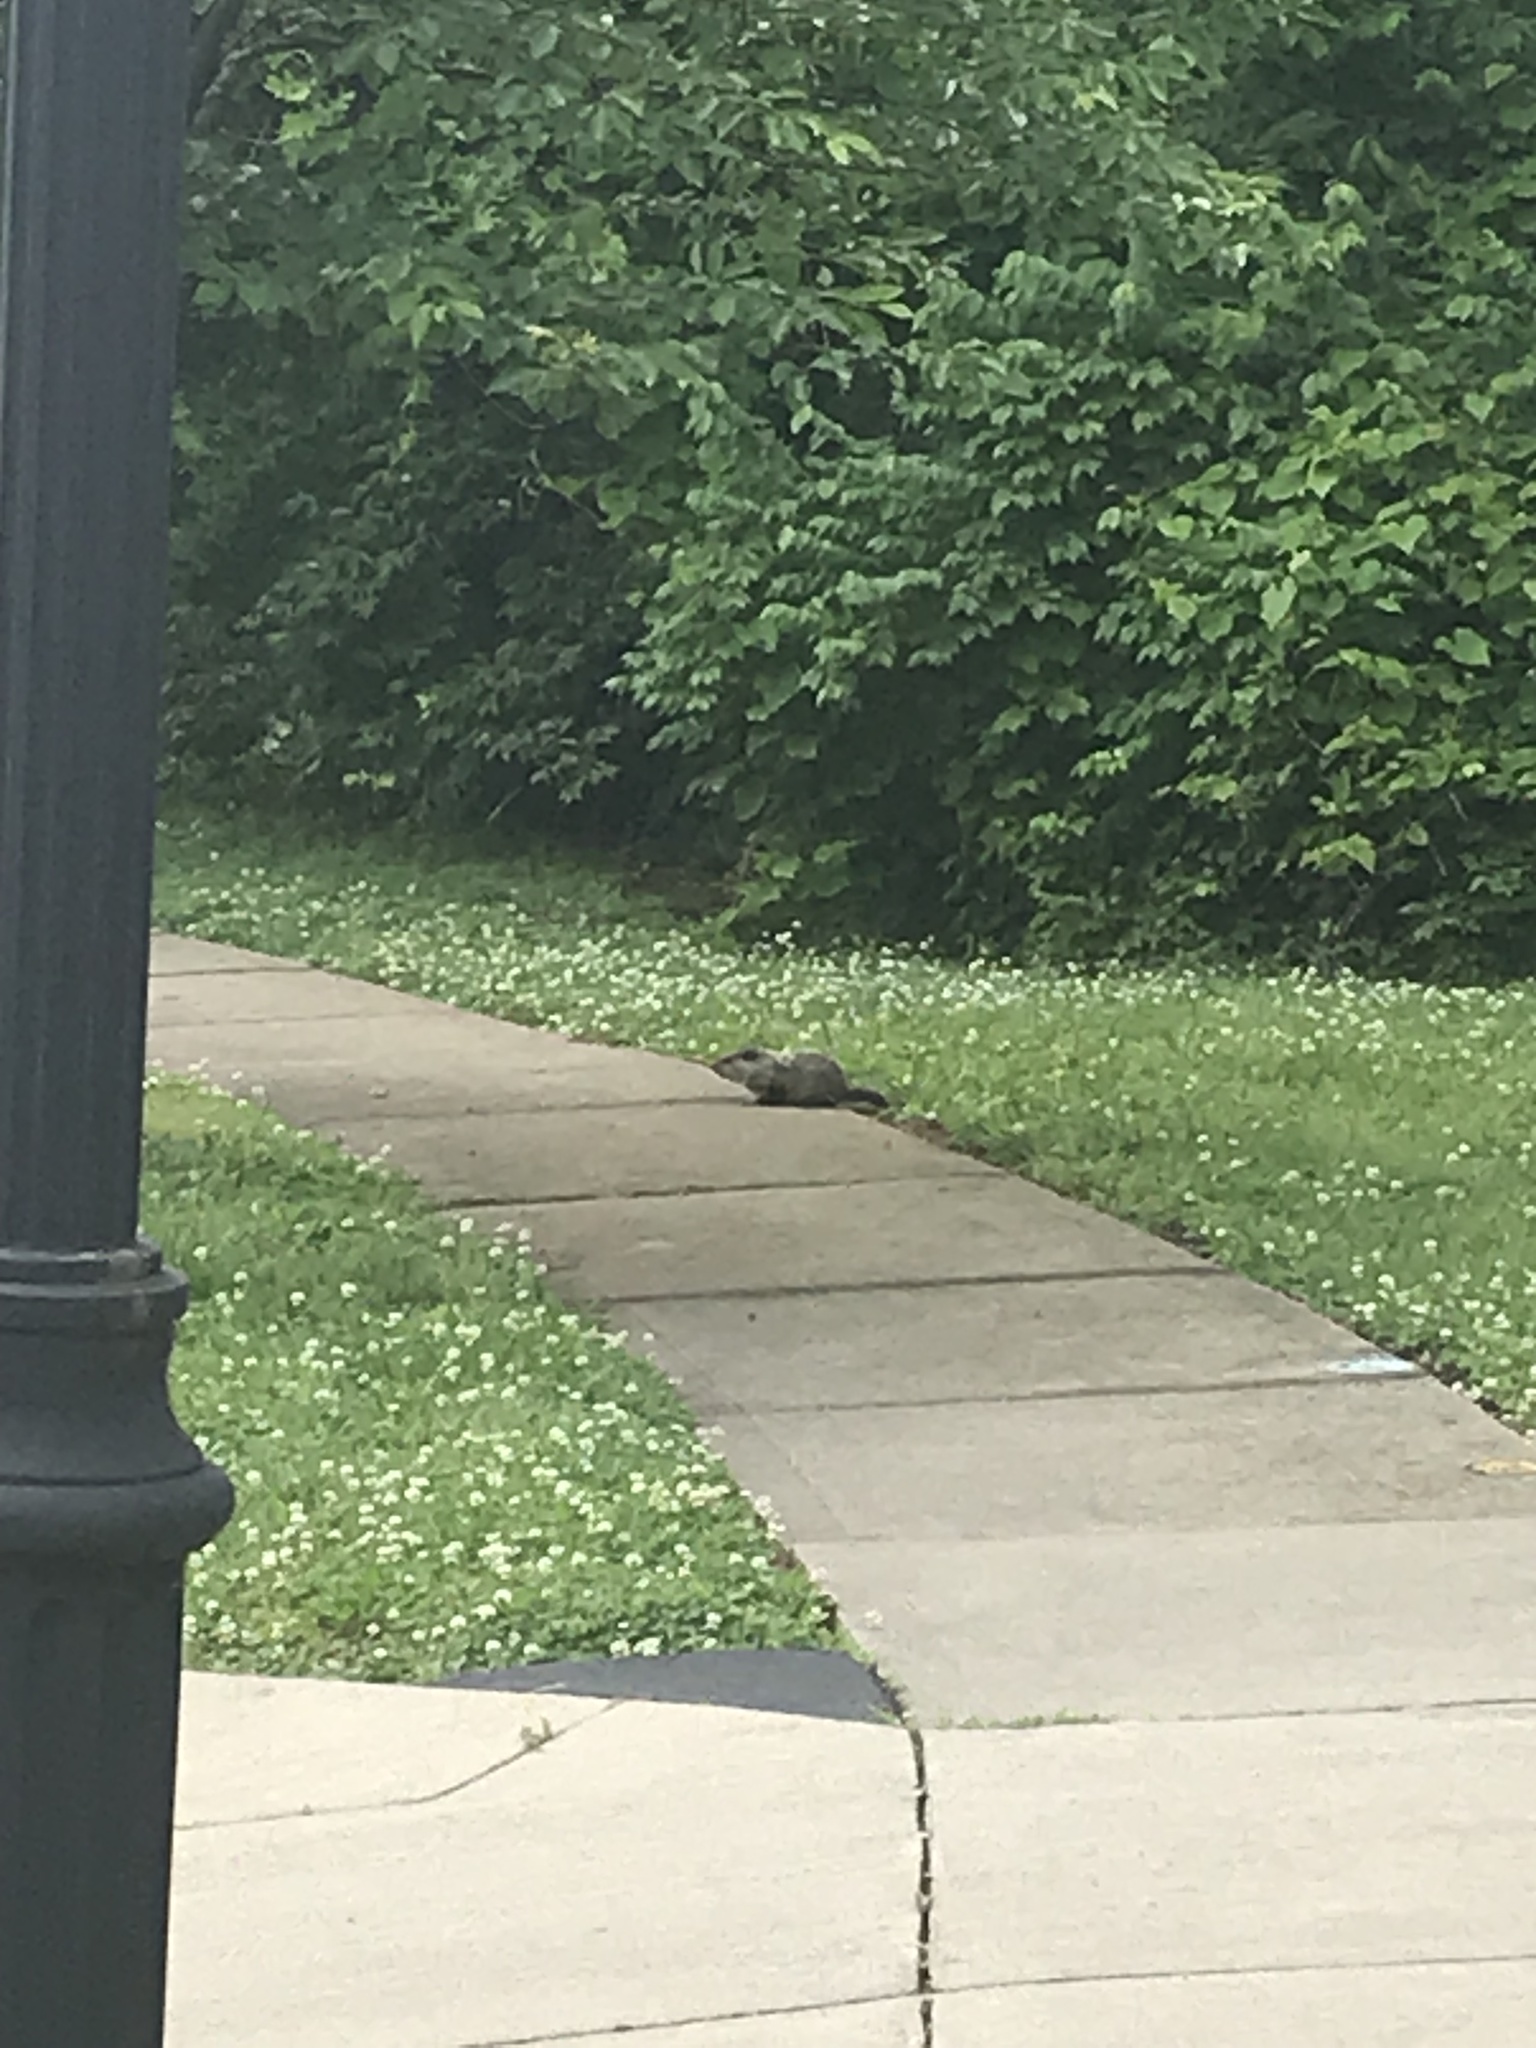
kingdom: Animalia
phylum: Chordata
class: Mammalia
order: Rodentia
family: Sciuridae
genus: Marmota
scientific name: Marmota monax
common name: Groundhog
